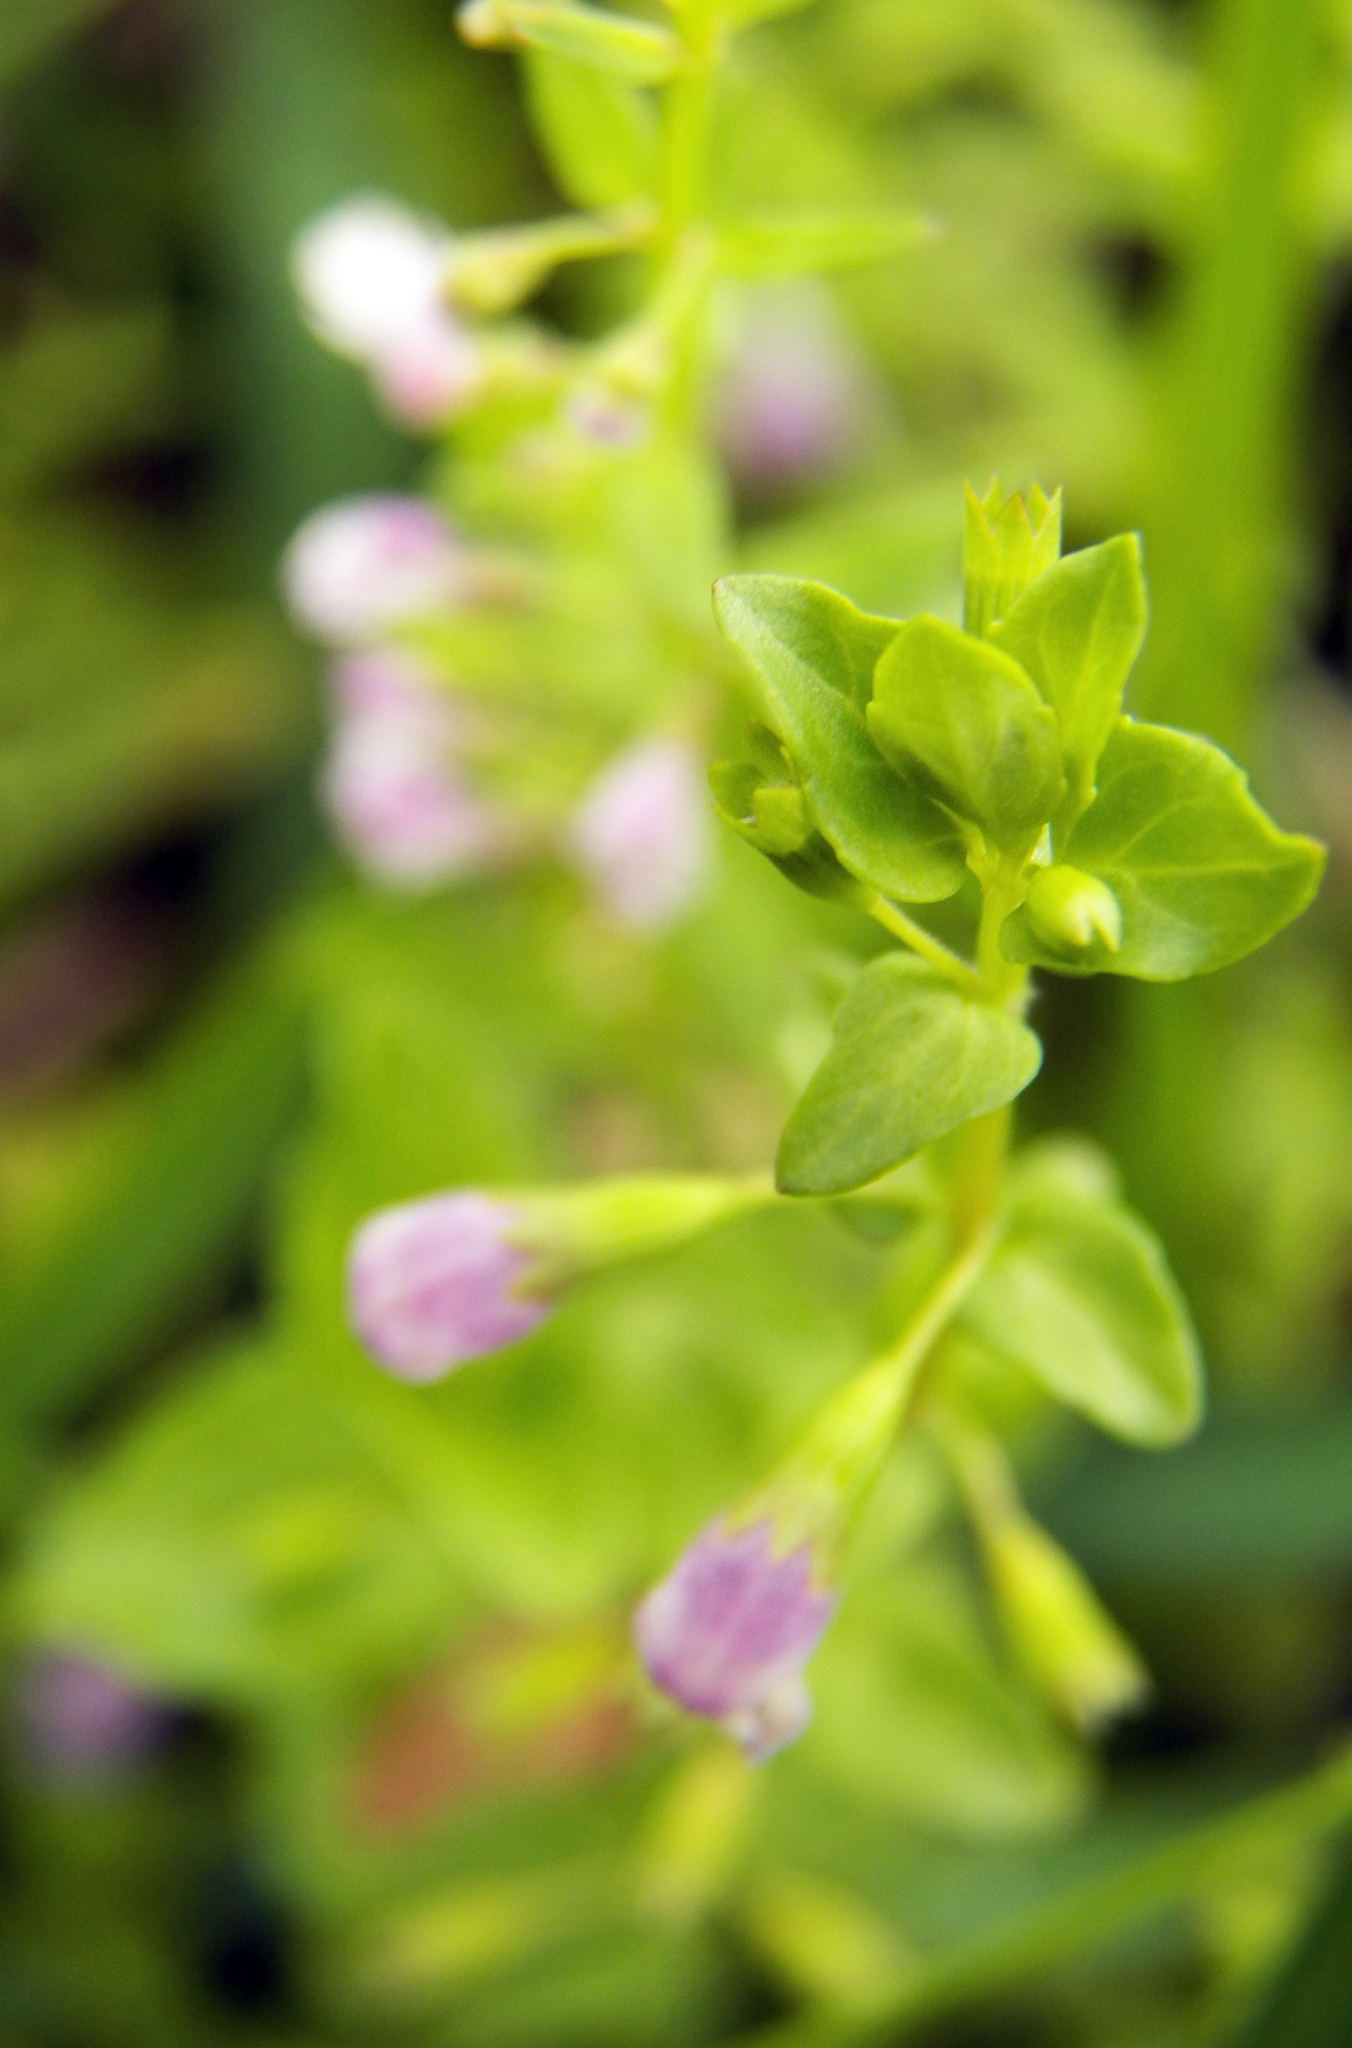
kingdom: Plantae
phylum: Tracheophyta
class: Magnoliopsida
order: Lamiales
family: Lamiaceae
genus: Clinopodium
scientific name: Clinopodium brownei
